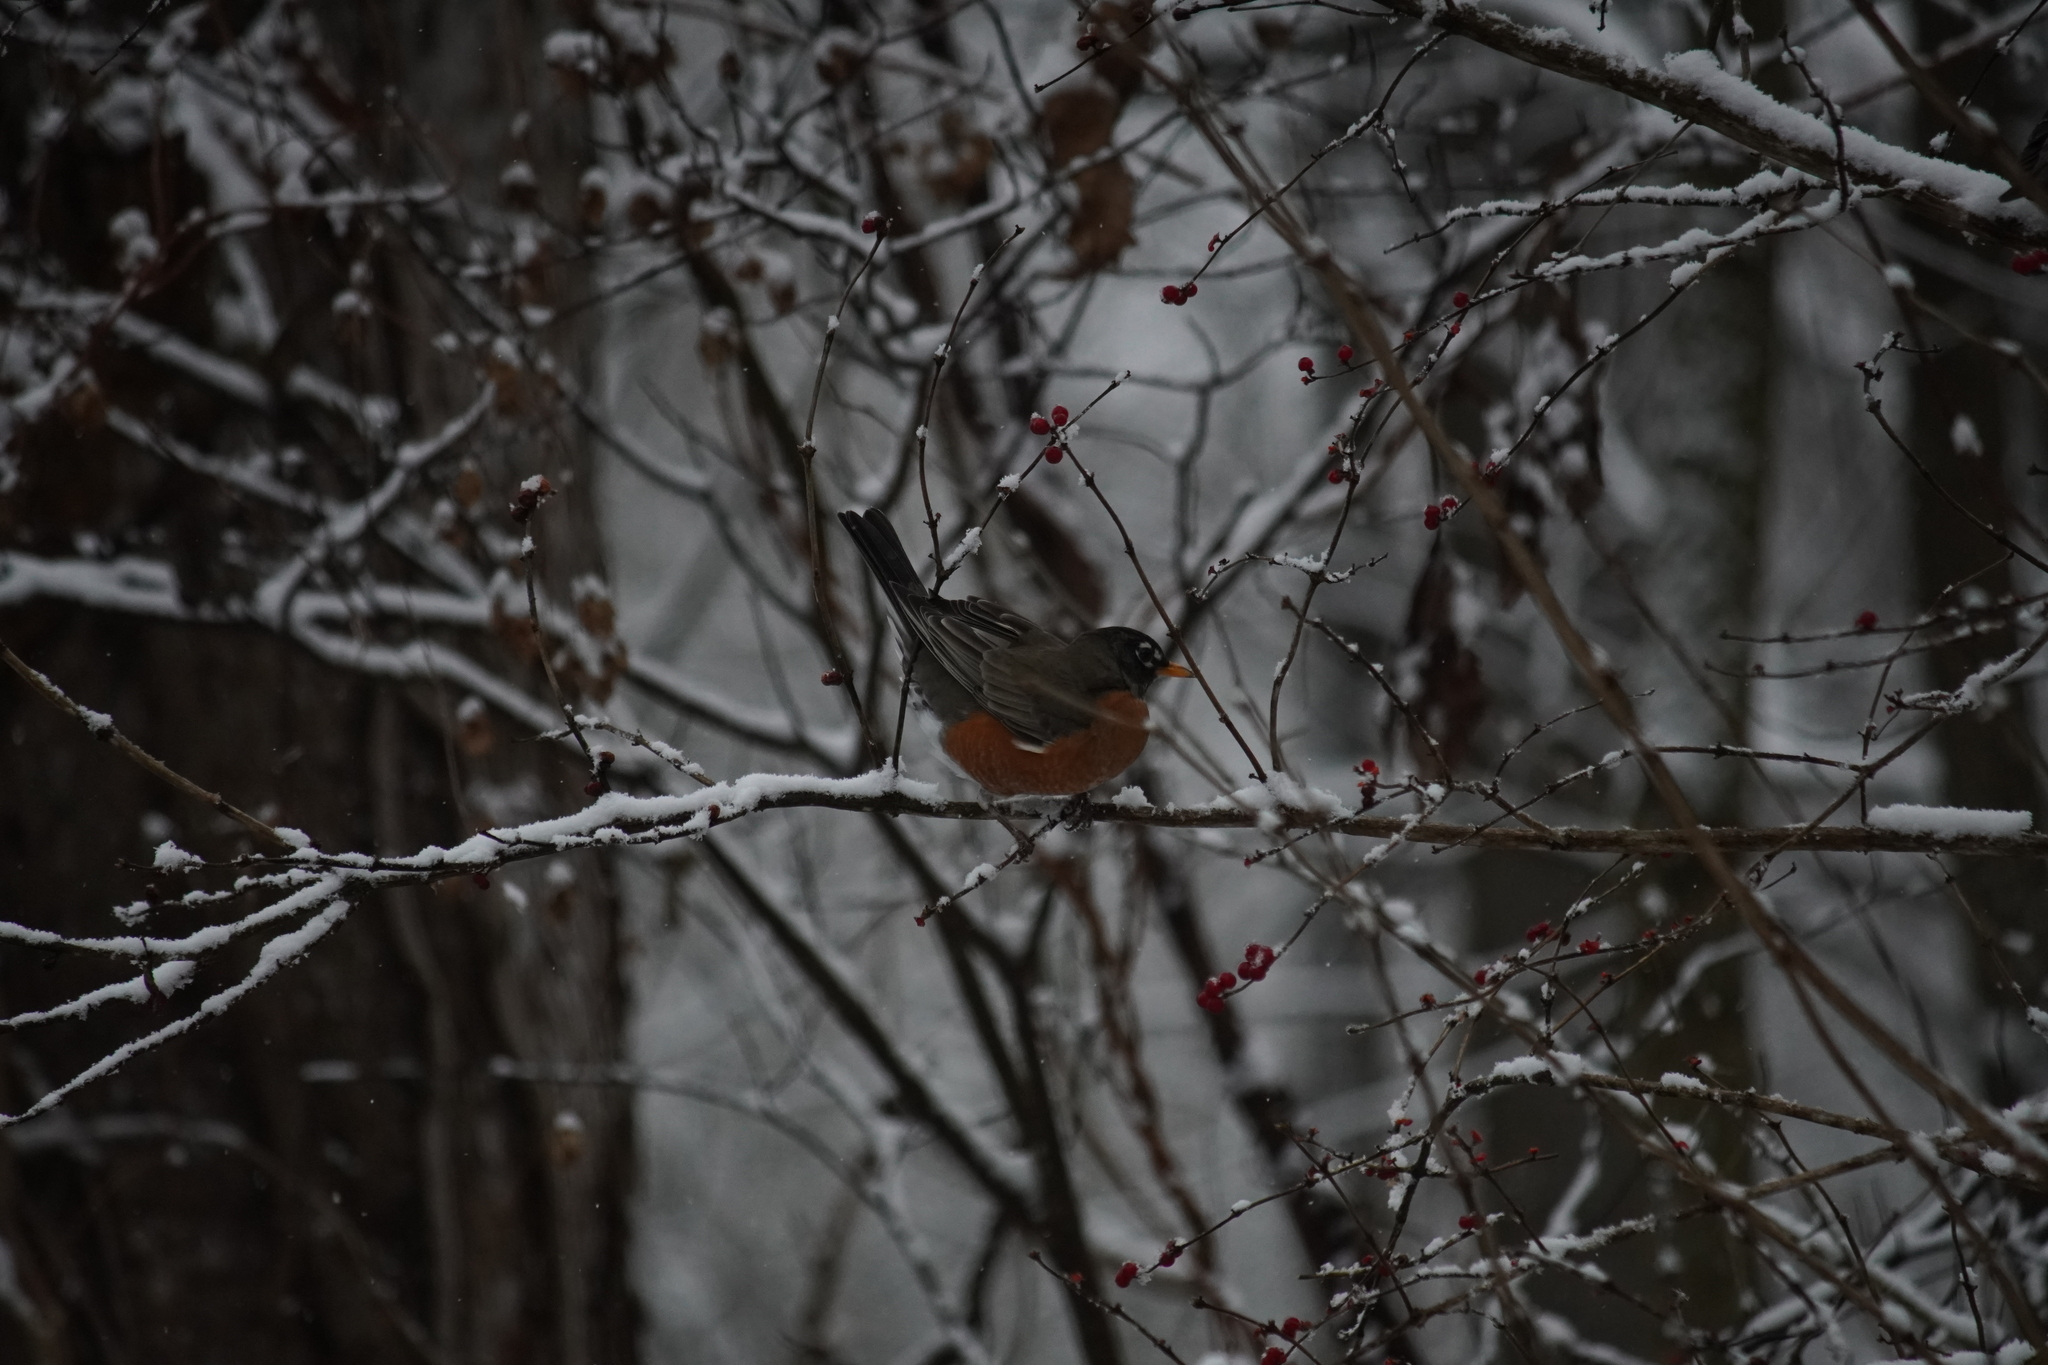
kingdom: Animalia
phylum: Chordata
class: Aves
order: Passeriformes
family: Turdidae
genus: Turdus
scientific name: Turdus migratorius
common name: American robin
